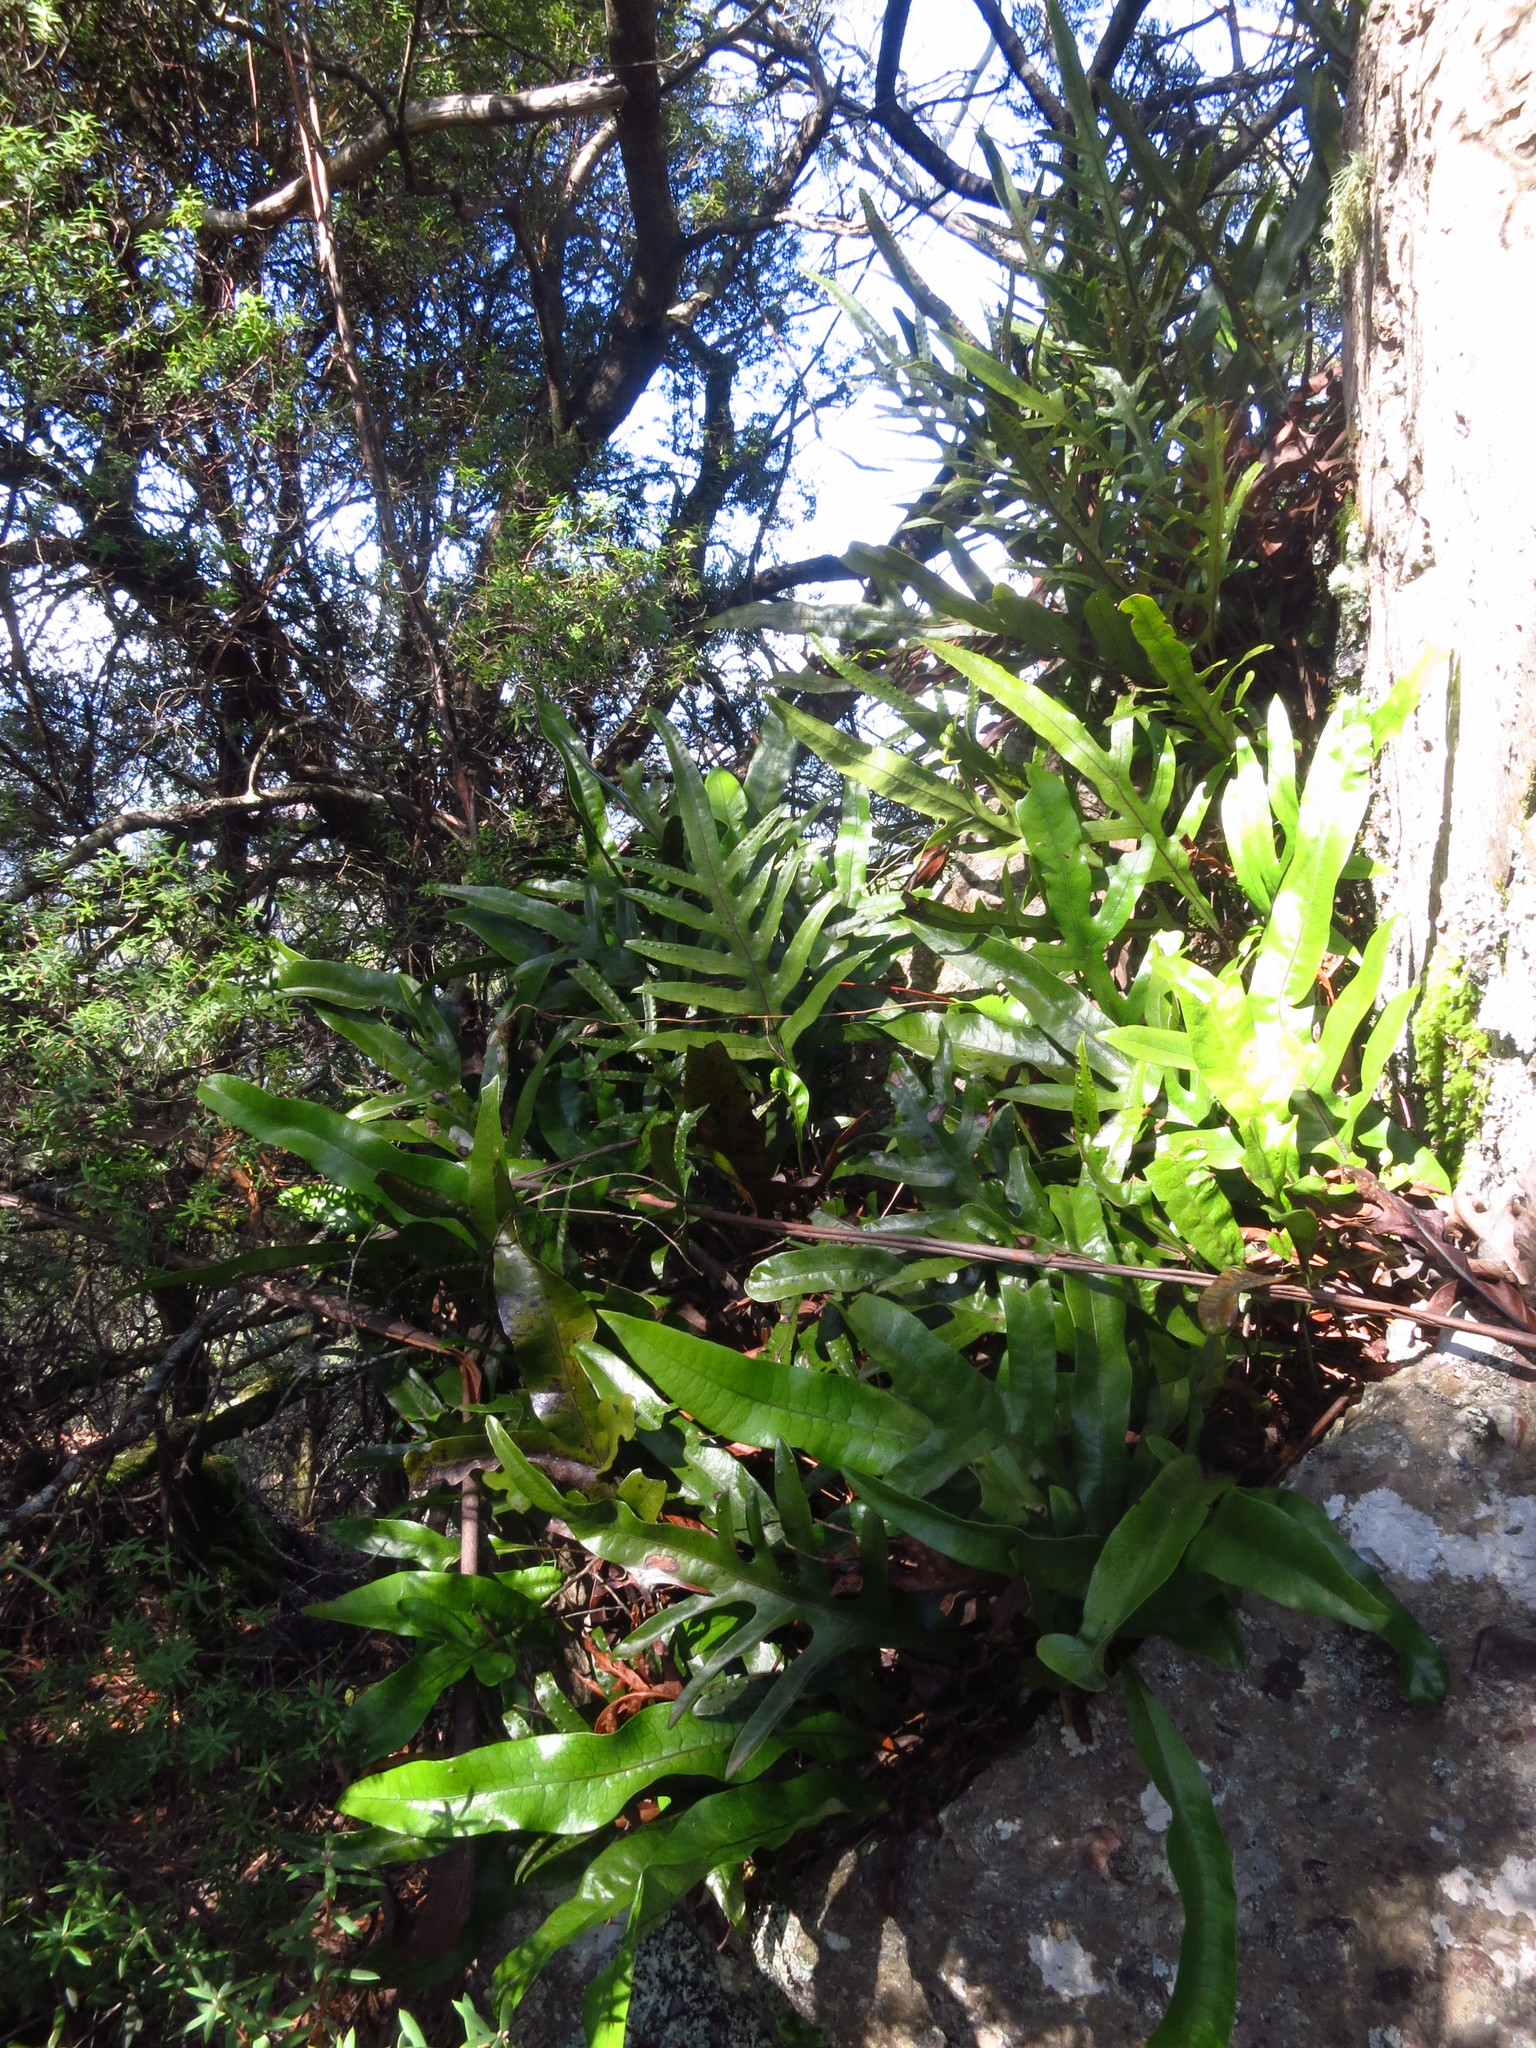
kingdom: Plantae
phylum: Tracheophyta
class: Polypodiopsida
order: Polypodiales
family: Polypodiaceae
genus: Lecanopteris
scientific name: Lecanopteris pustulata
